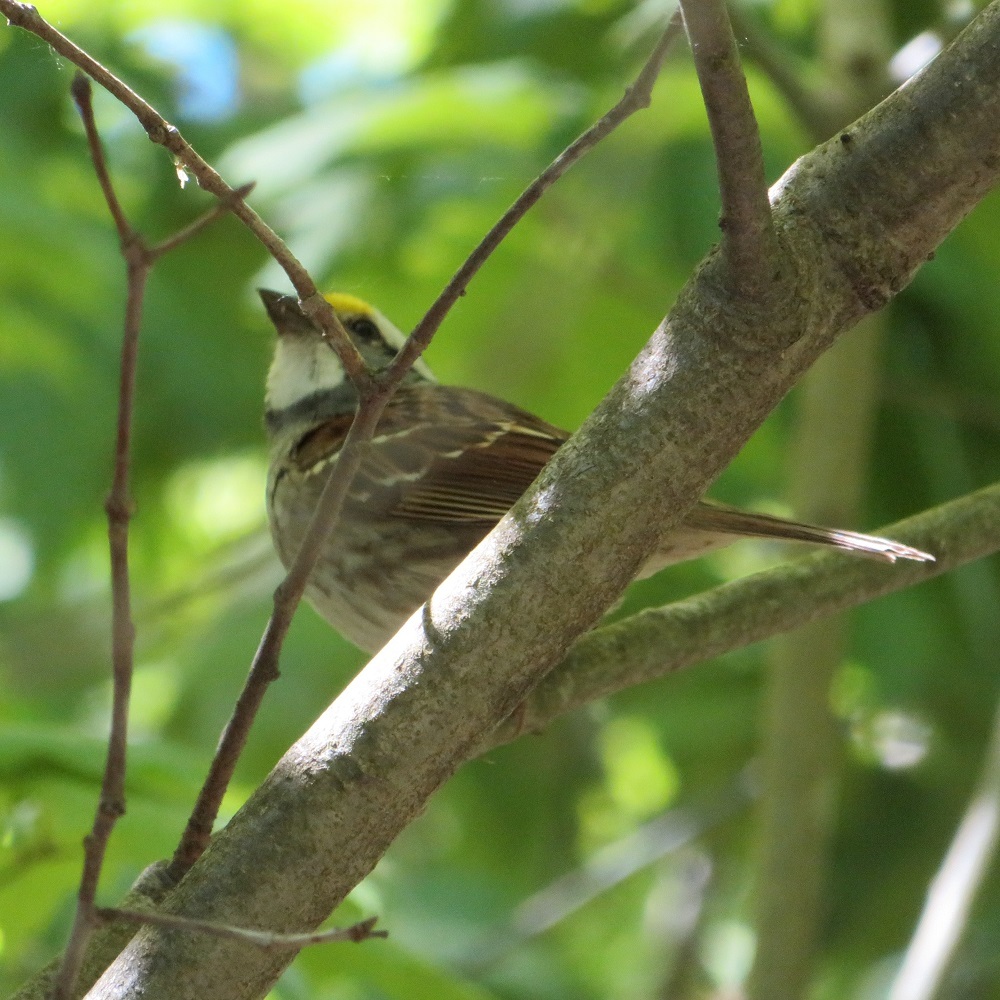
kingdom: Animalia
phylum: Chordata
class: Aves
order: Passeriformes
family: Passerellidae
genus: Zonotrichia
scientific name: Zonotrichia albicollis
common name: White-throated sparrow
